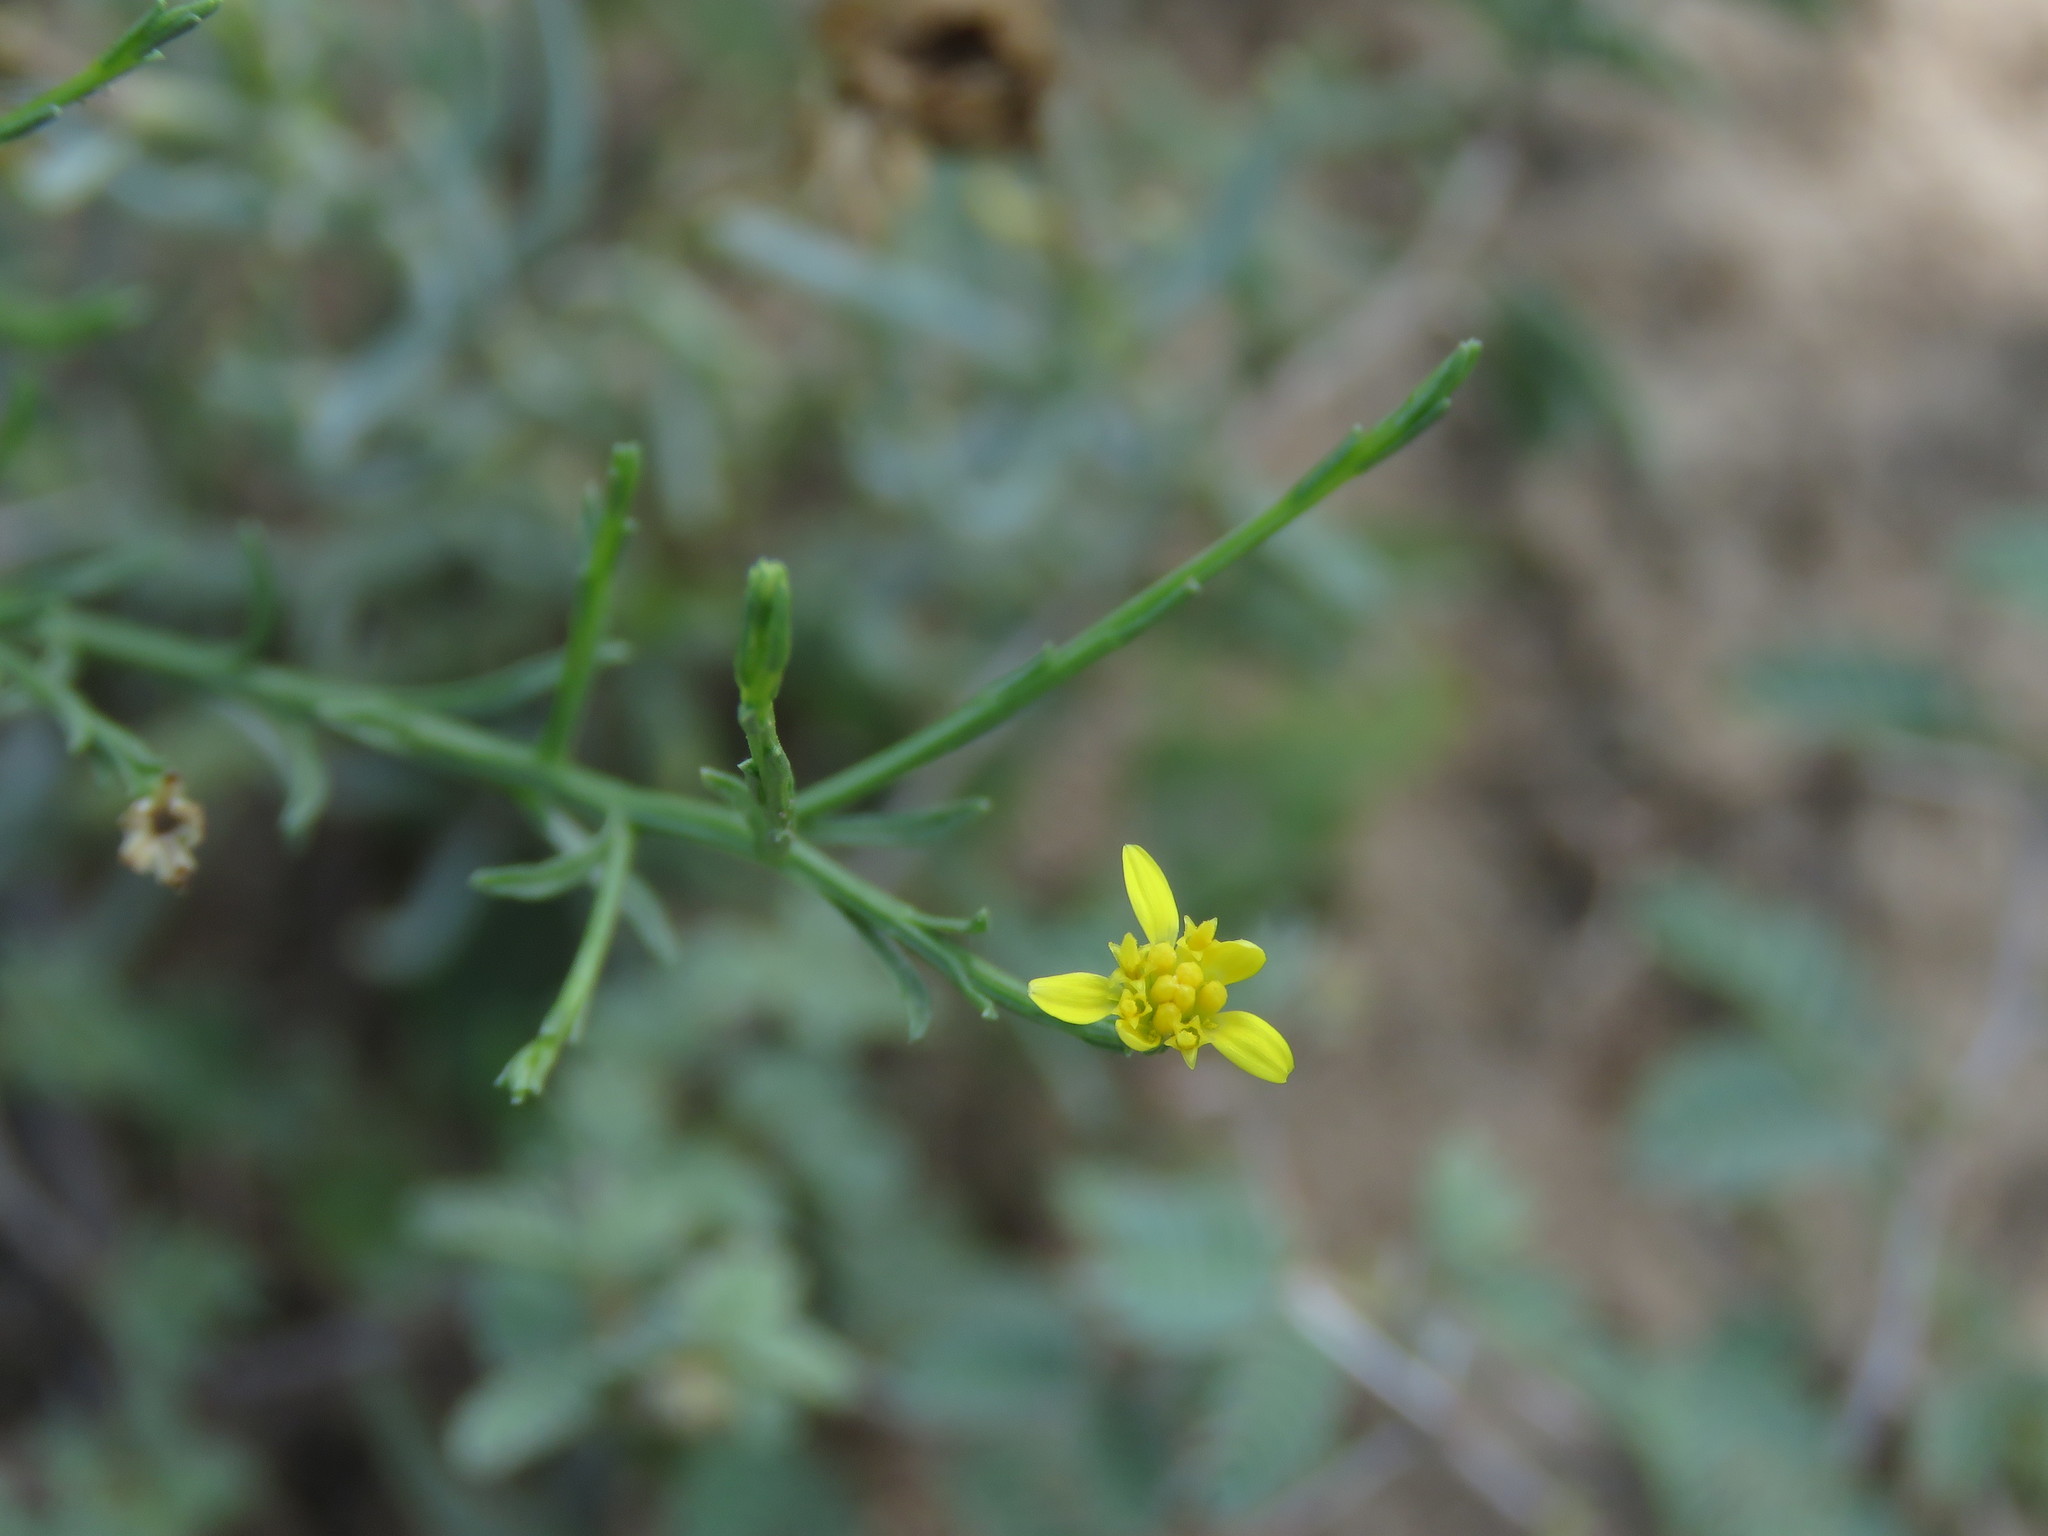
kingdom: Plantae
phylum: Tracheophyta
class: Magnoliopsida
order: Asterales
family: Asteraceae
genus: Gutierrezia
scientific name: Gutierrezia sphaerocephala
